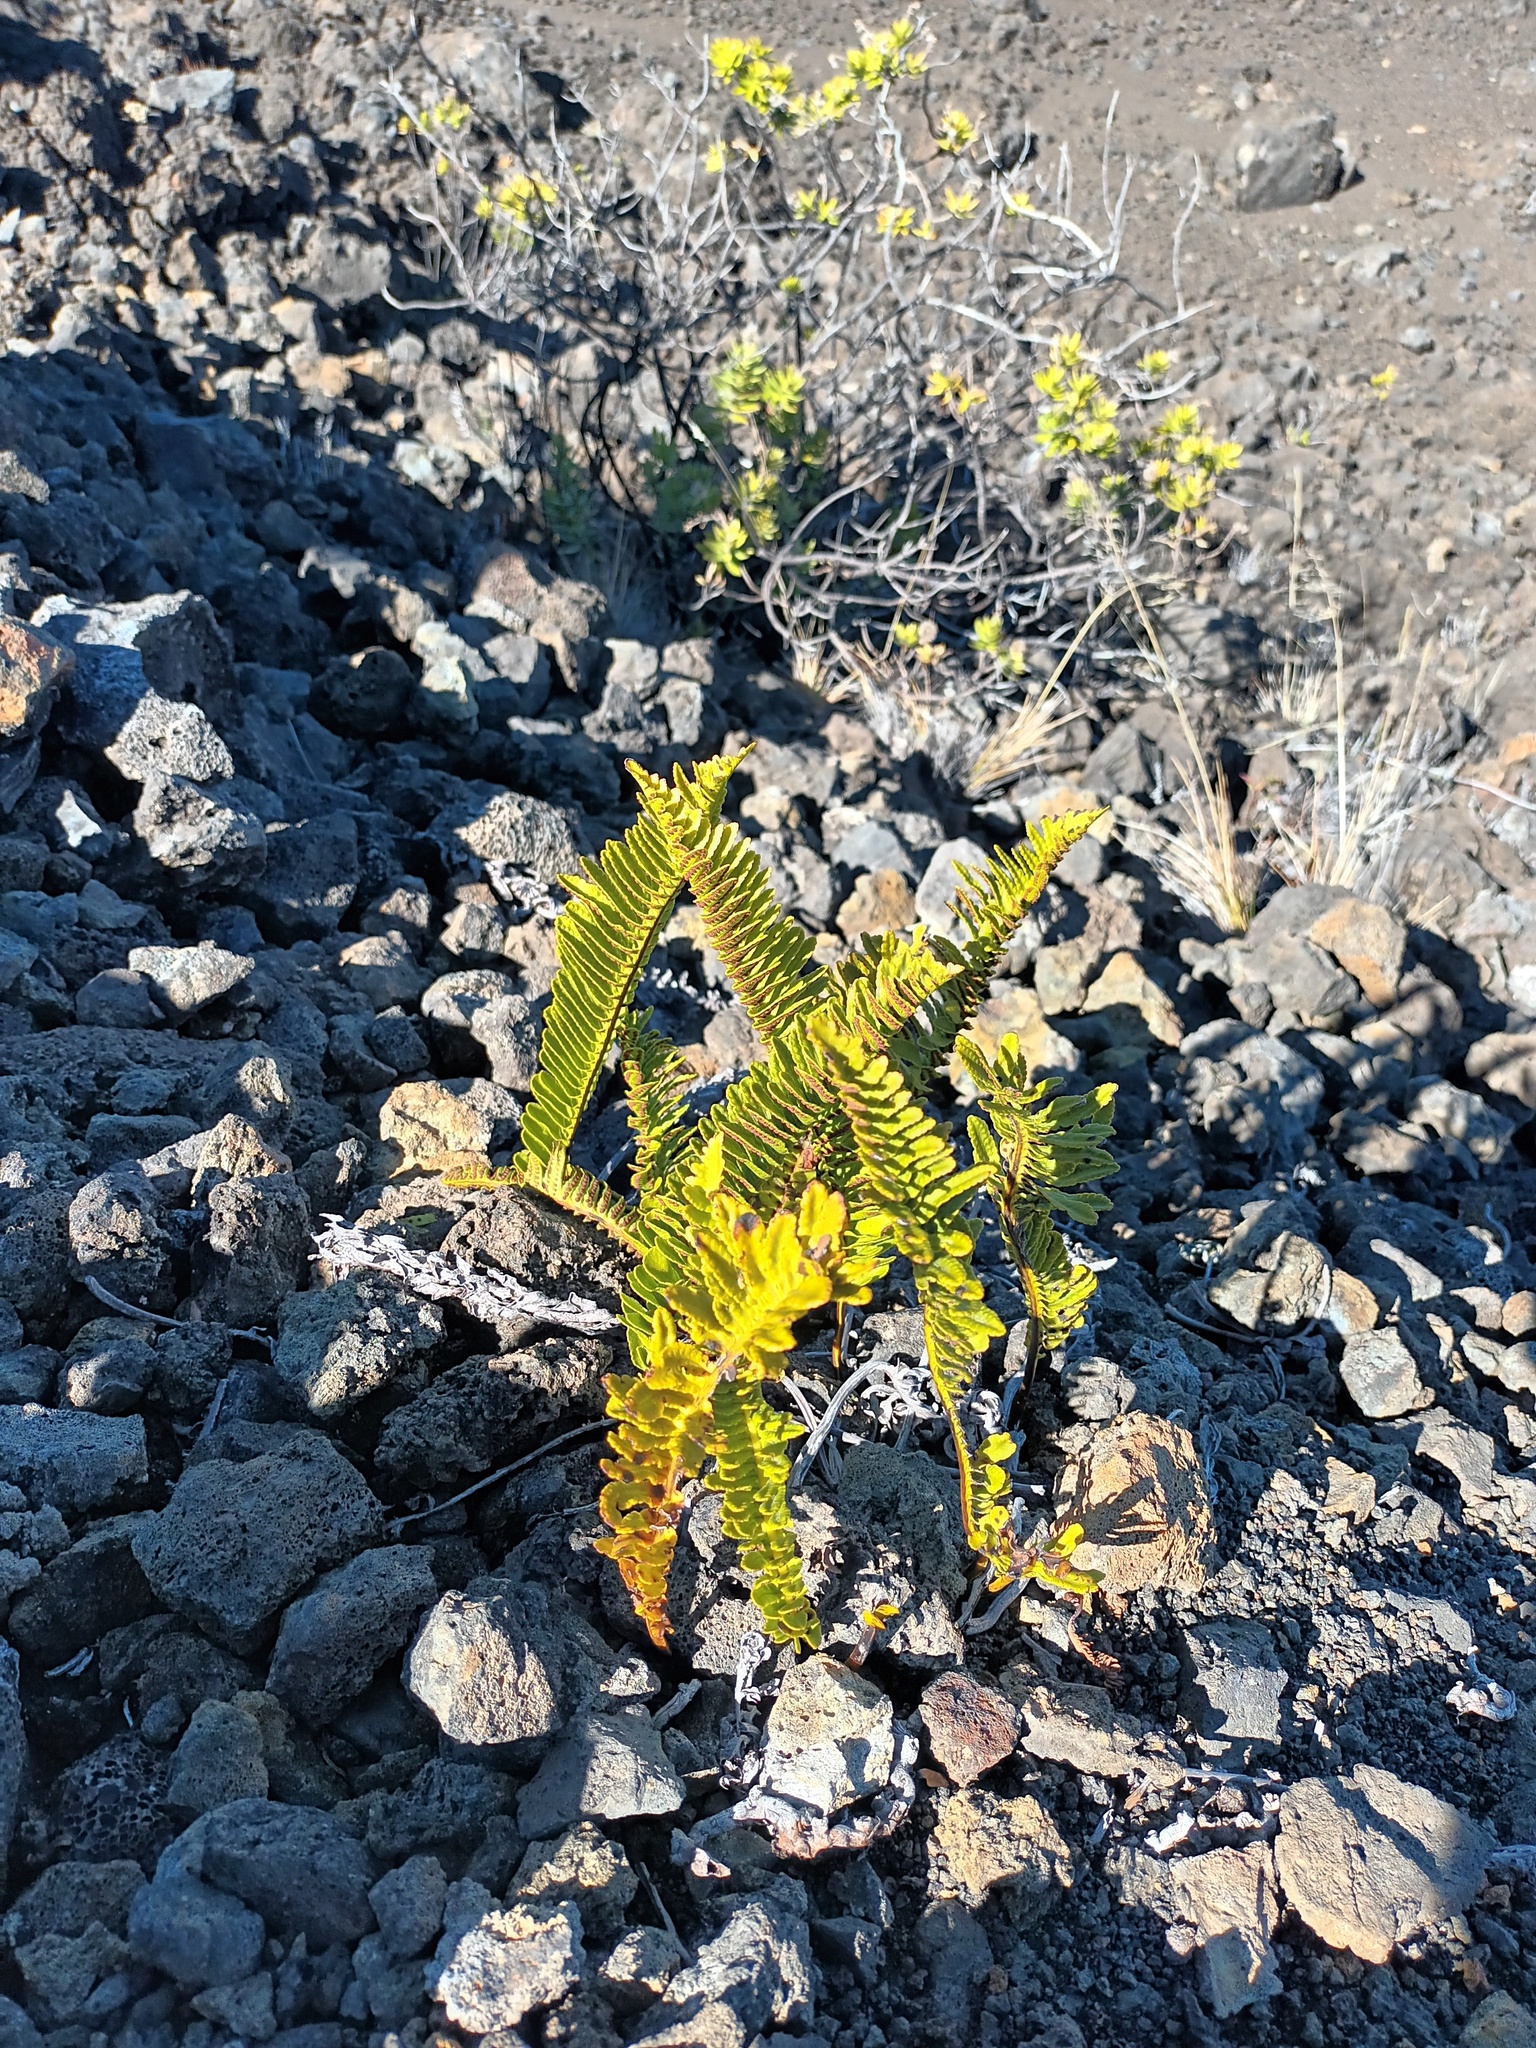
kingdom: Plantae
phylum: Tracheophyta
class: Polypodiopsida
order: Polypodiales
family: Polypodiaceae
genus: Polypodium
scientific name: Polypodium pellucidum
